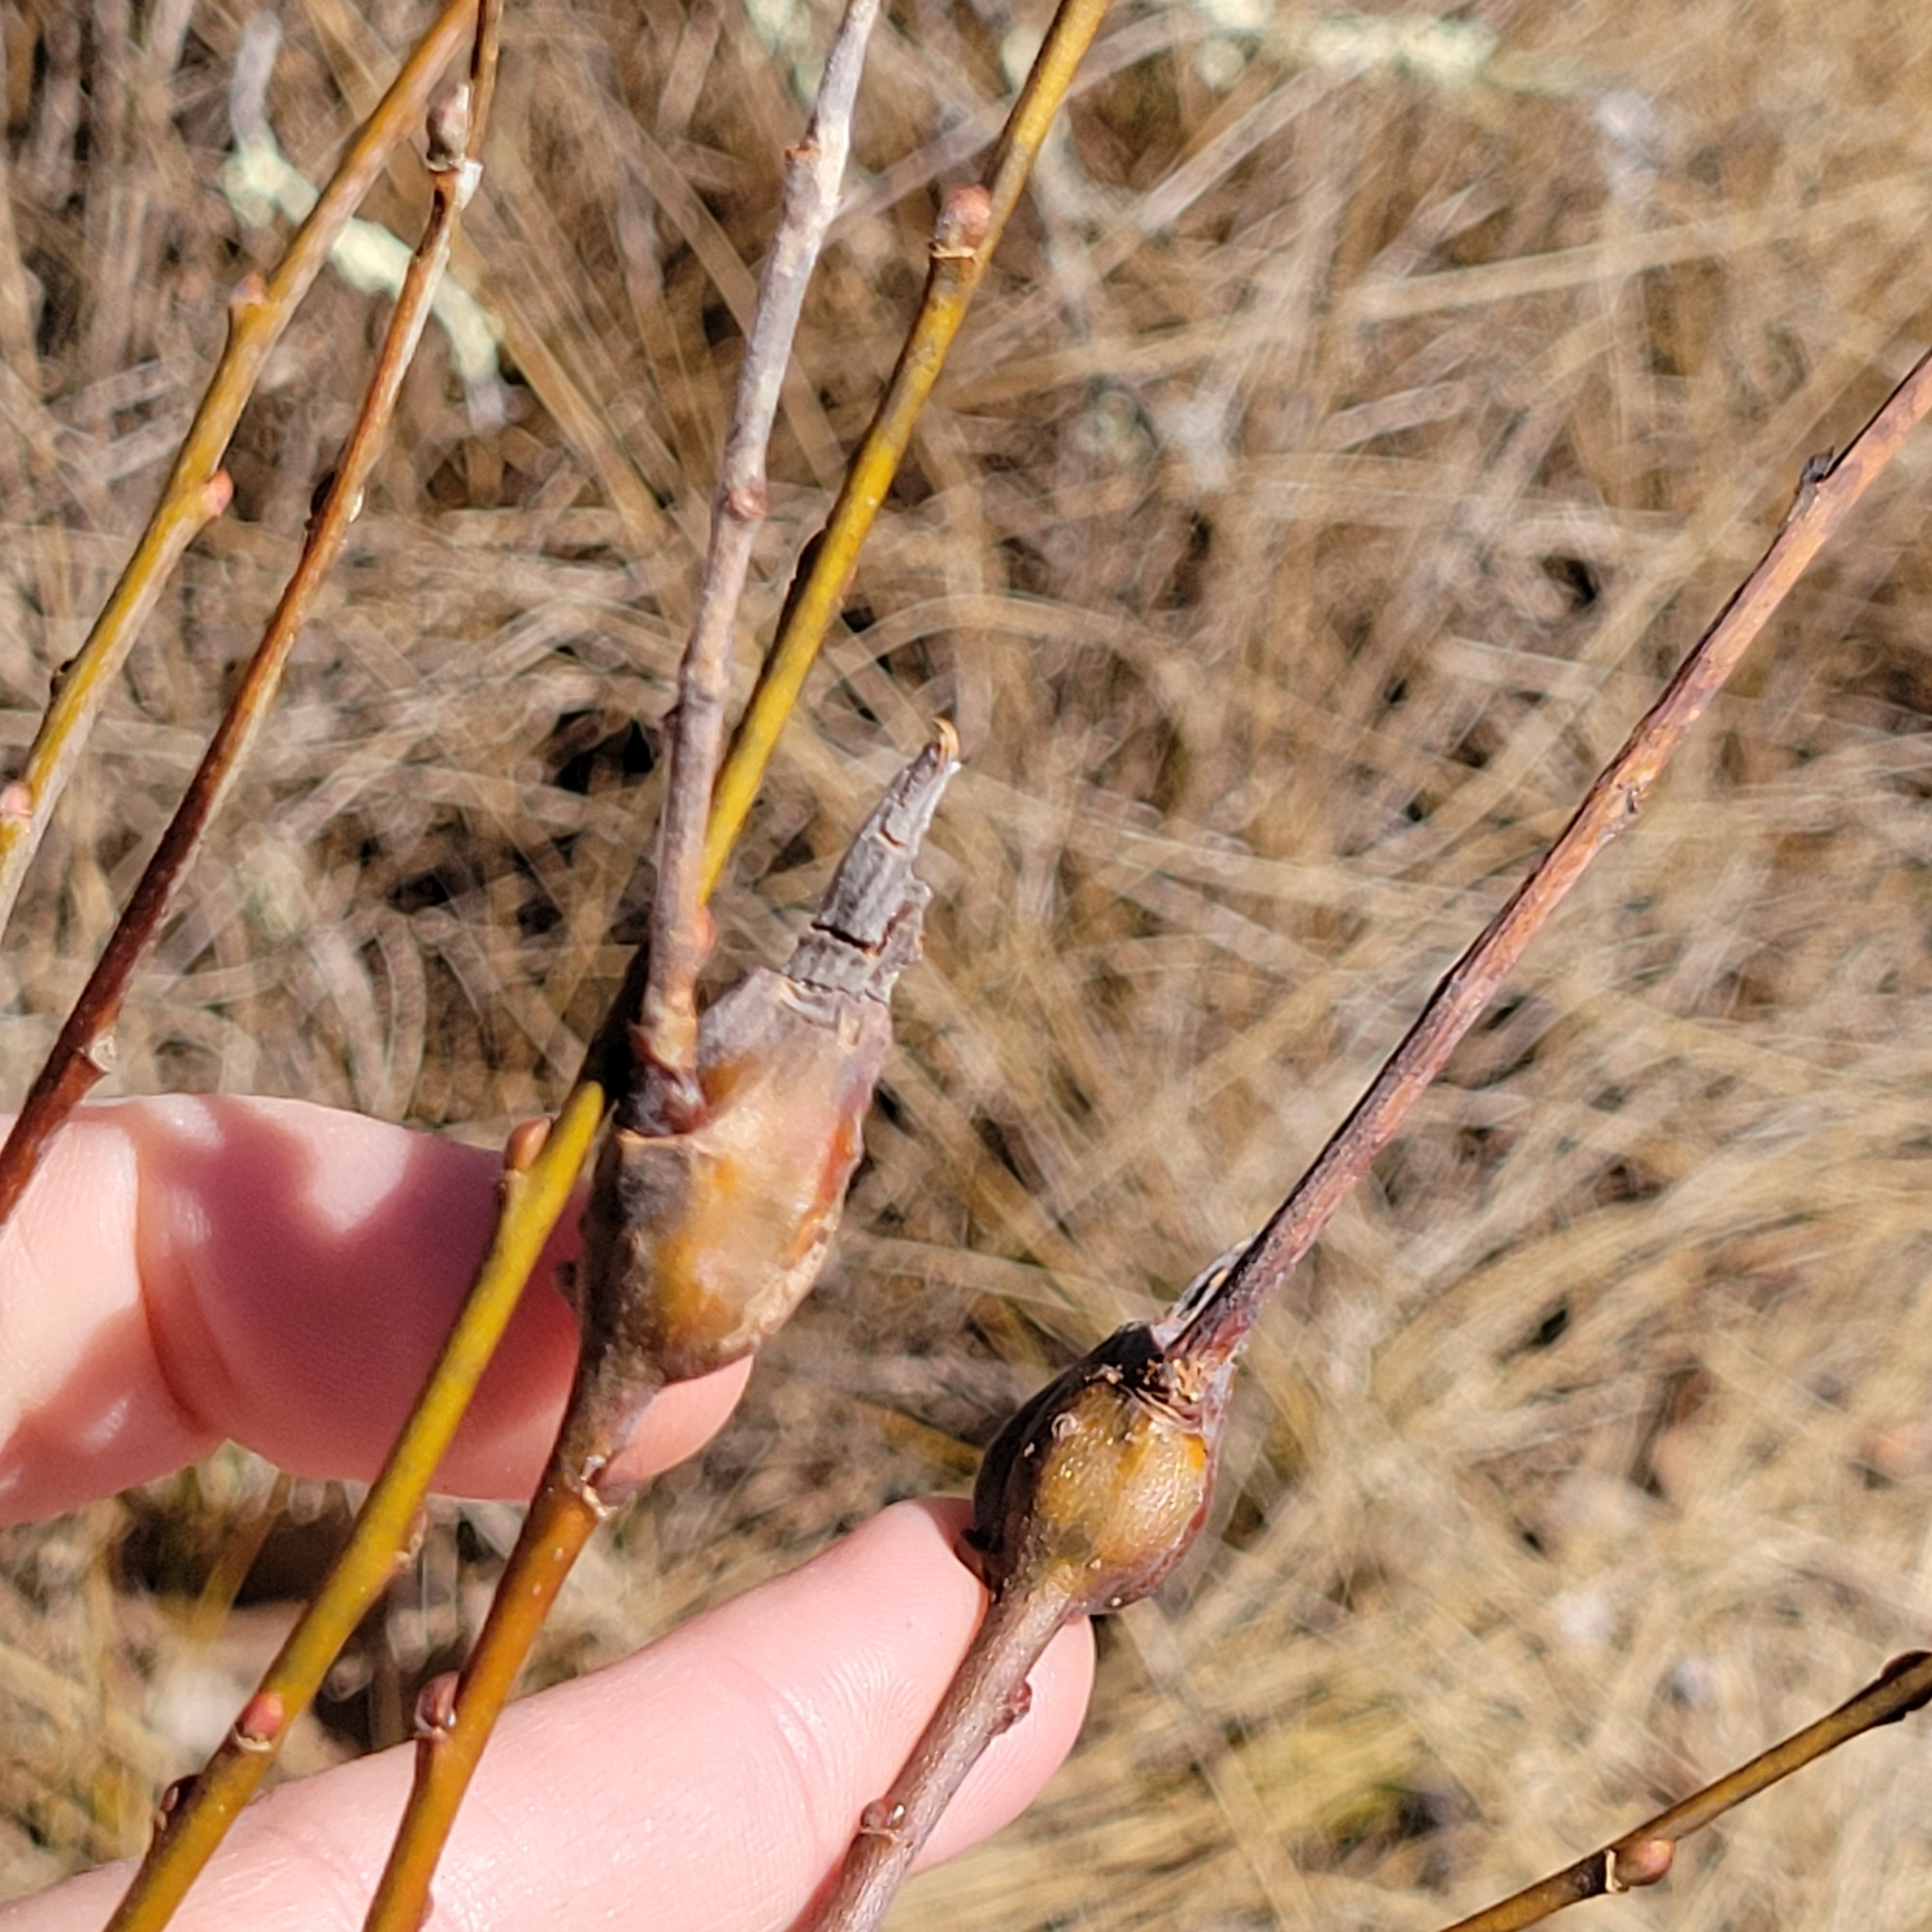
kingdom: Animalia
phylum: Arthropoda
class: Insecta
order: Diptera
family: Cecidomyiidae
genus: Thecodiplosis
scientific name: Thecodiplosis pinirigidae
